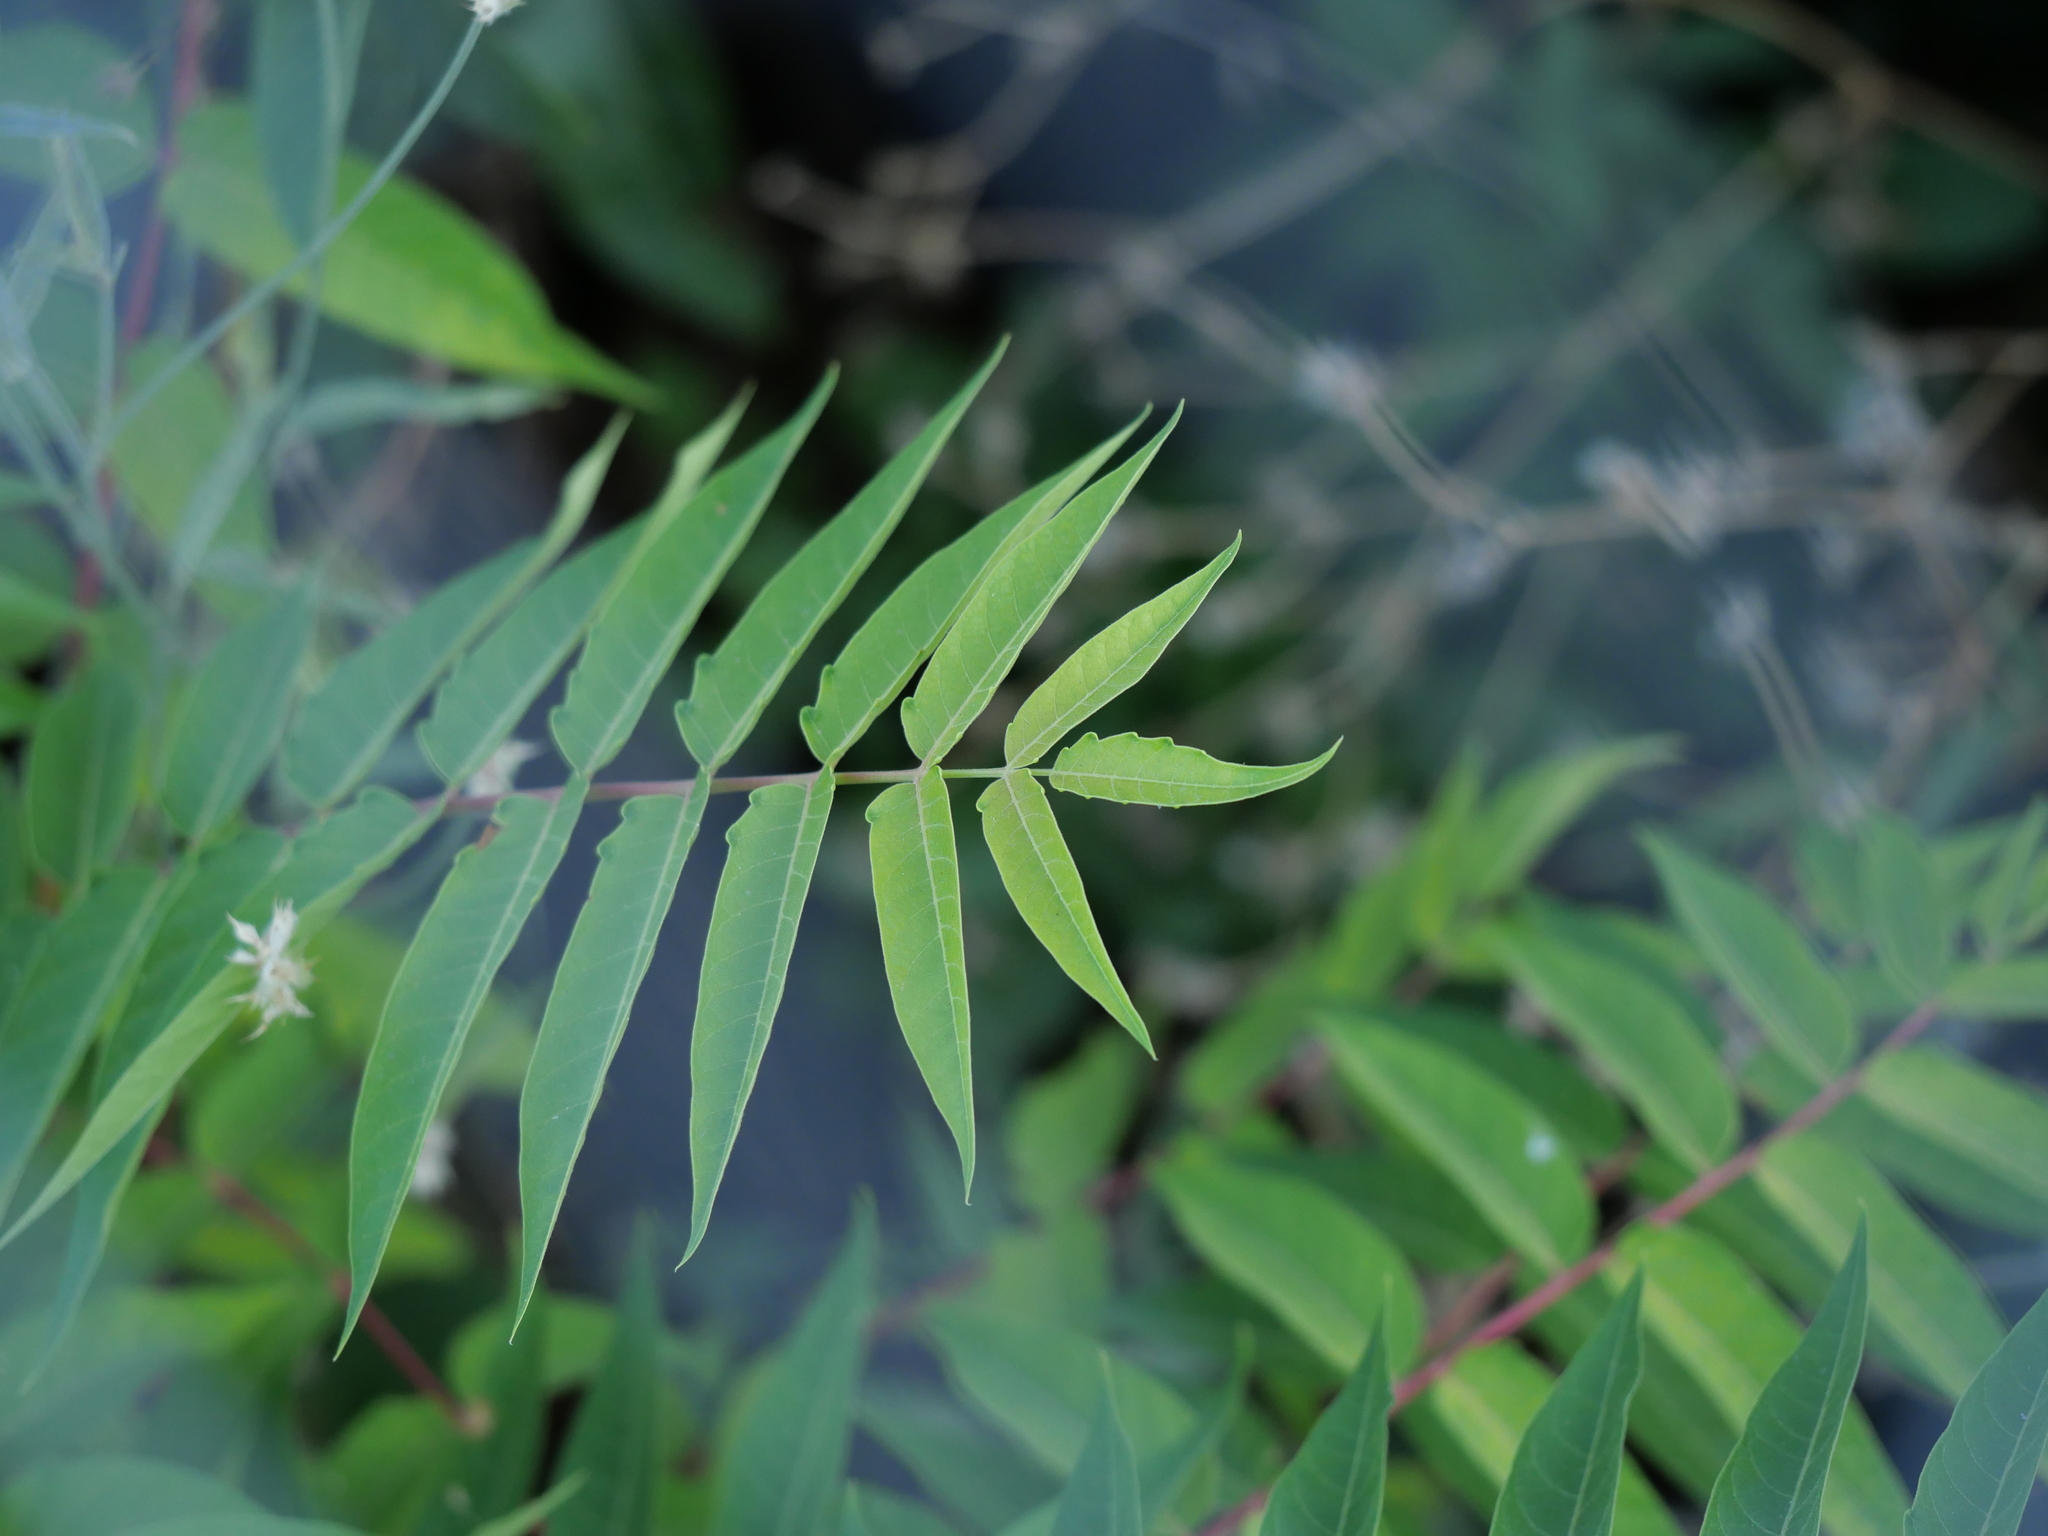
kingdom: Plantae
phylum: Tracheophyta
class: Magnoliopsida
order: Sapindales
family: Simaroubaceae
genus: Ailanthus
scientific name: Ailanthus altissima
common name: Tree-of-heaven
